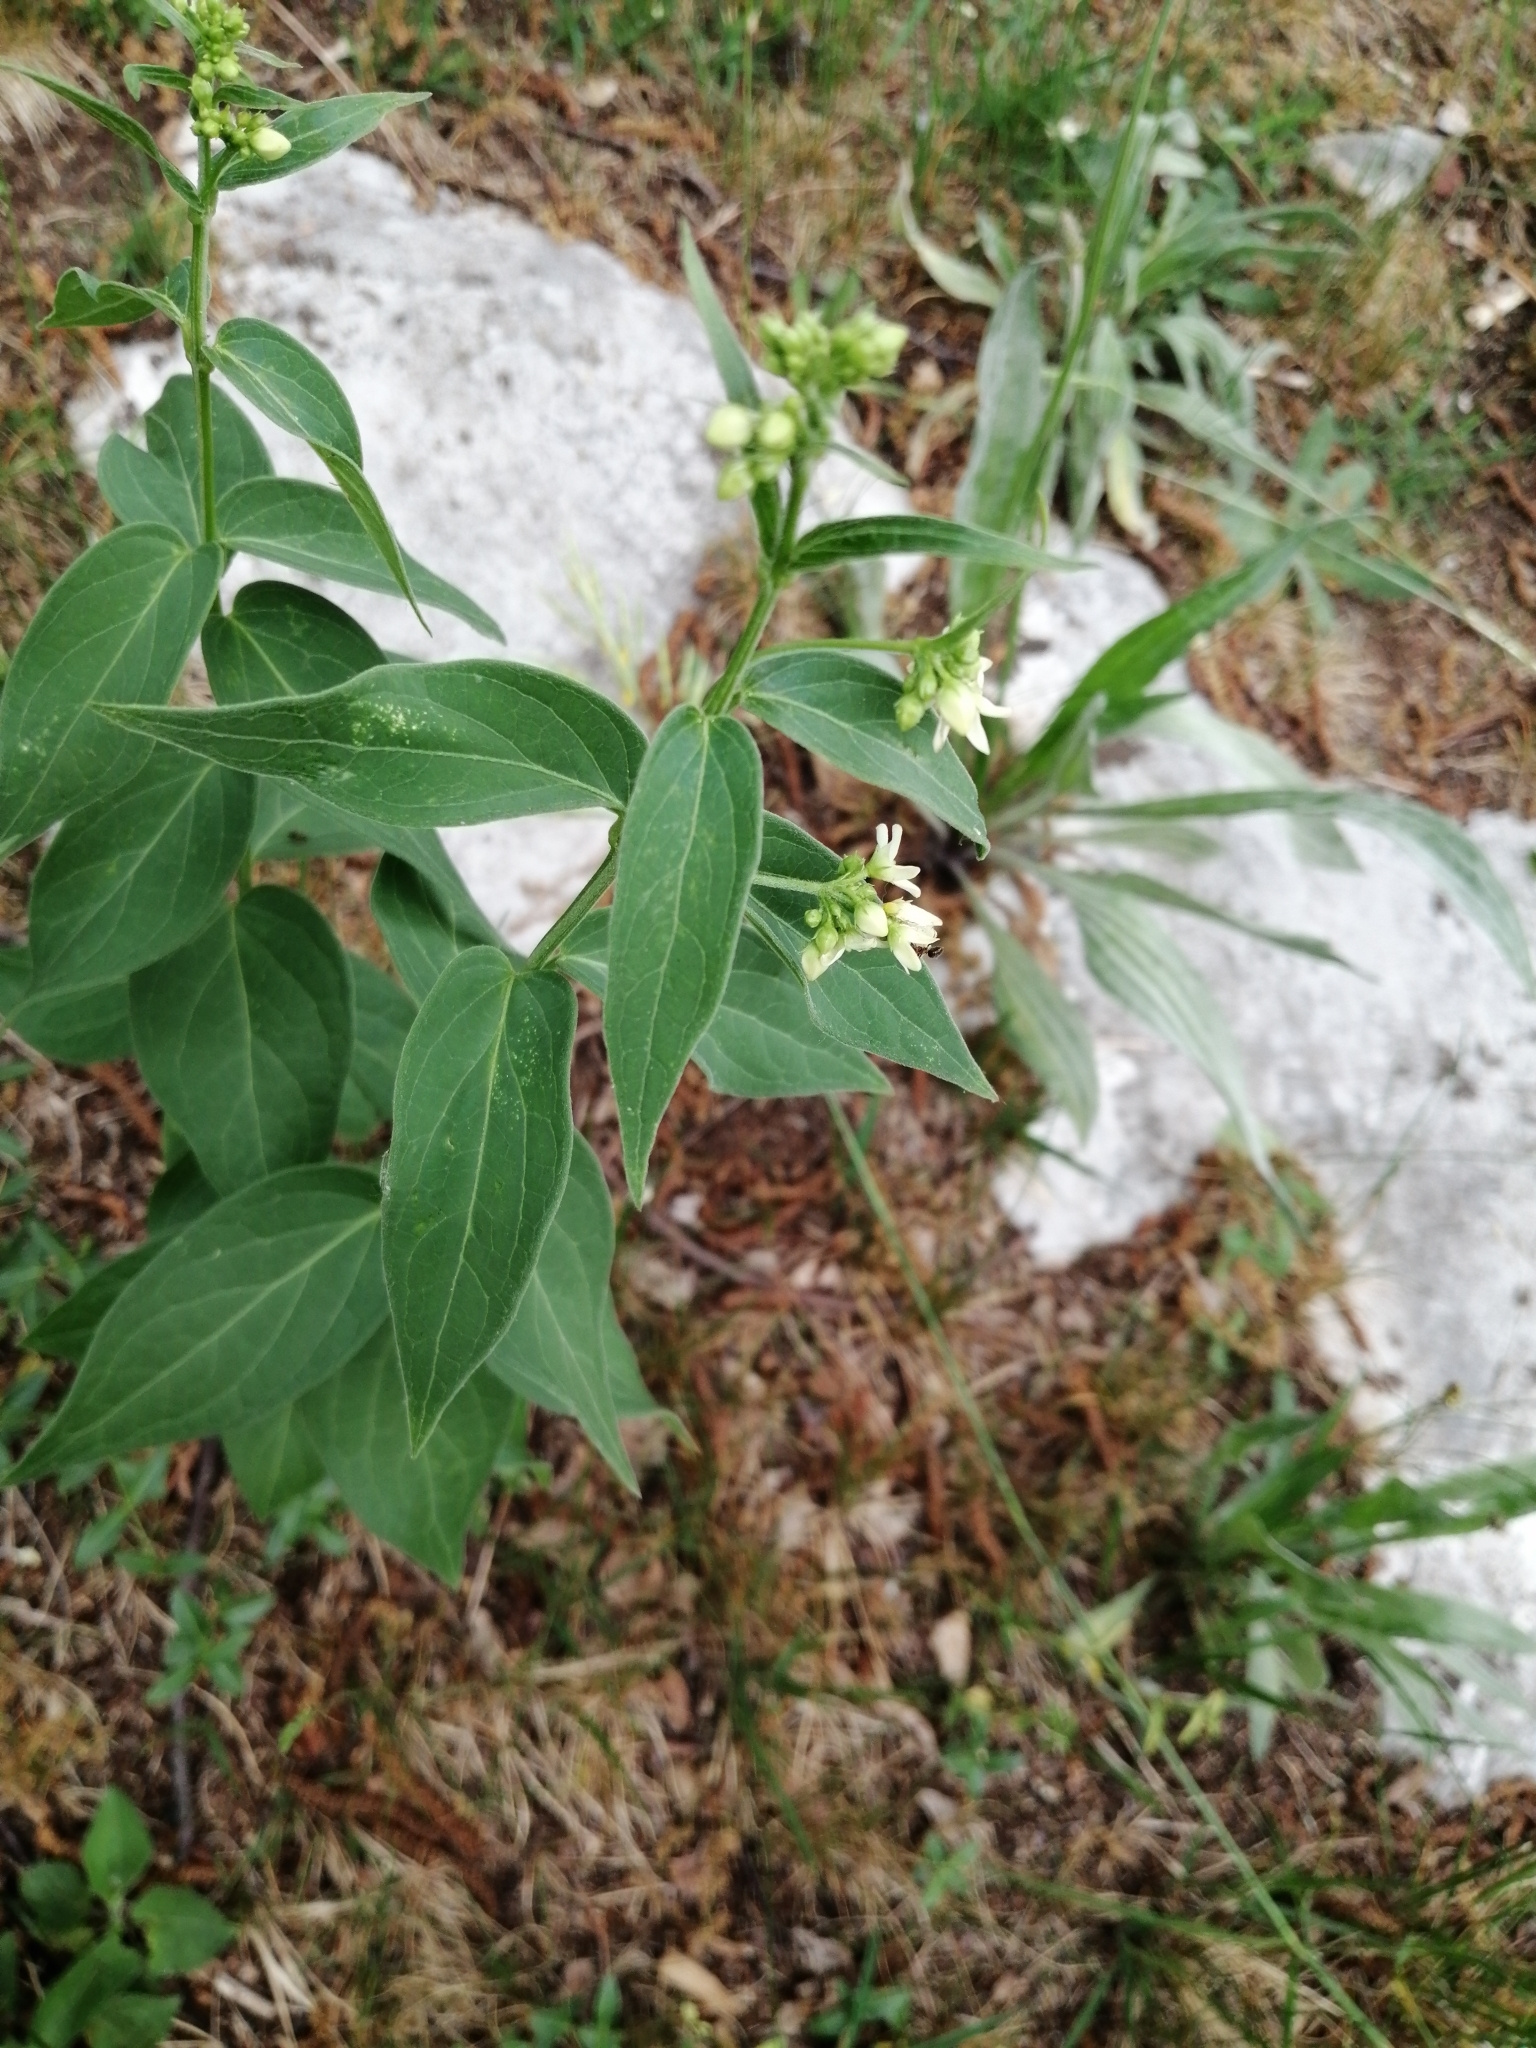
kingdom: Plantae
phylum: Tracheophyta
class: Magnoliopsida
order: Gentianales
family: Apocynaceae
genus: Vincetoxicum
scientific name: Vincetoxicum hirundinaria
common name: White swallowwort
